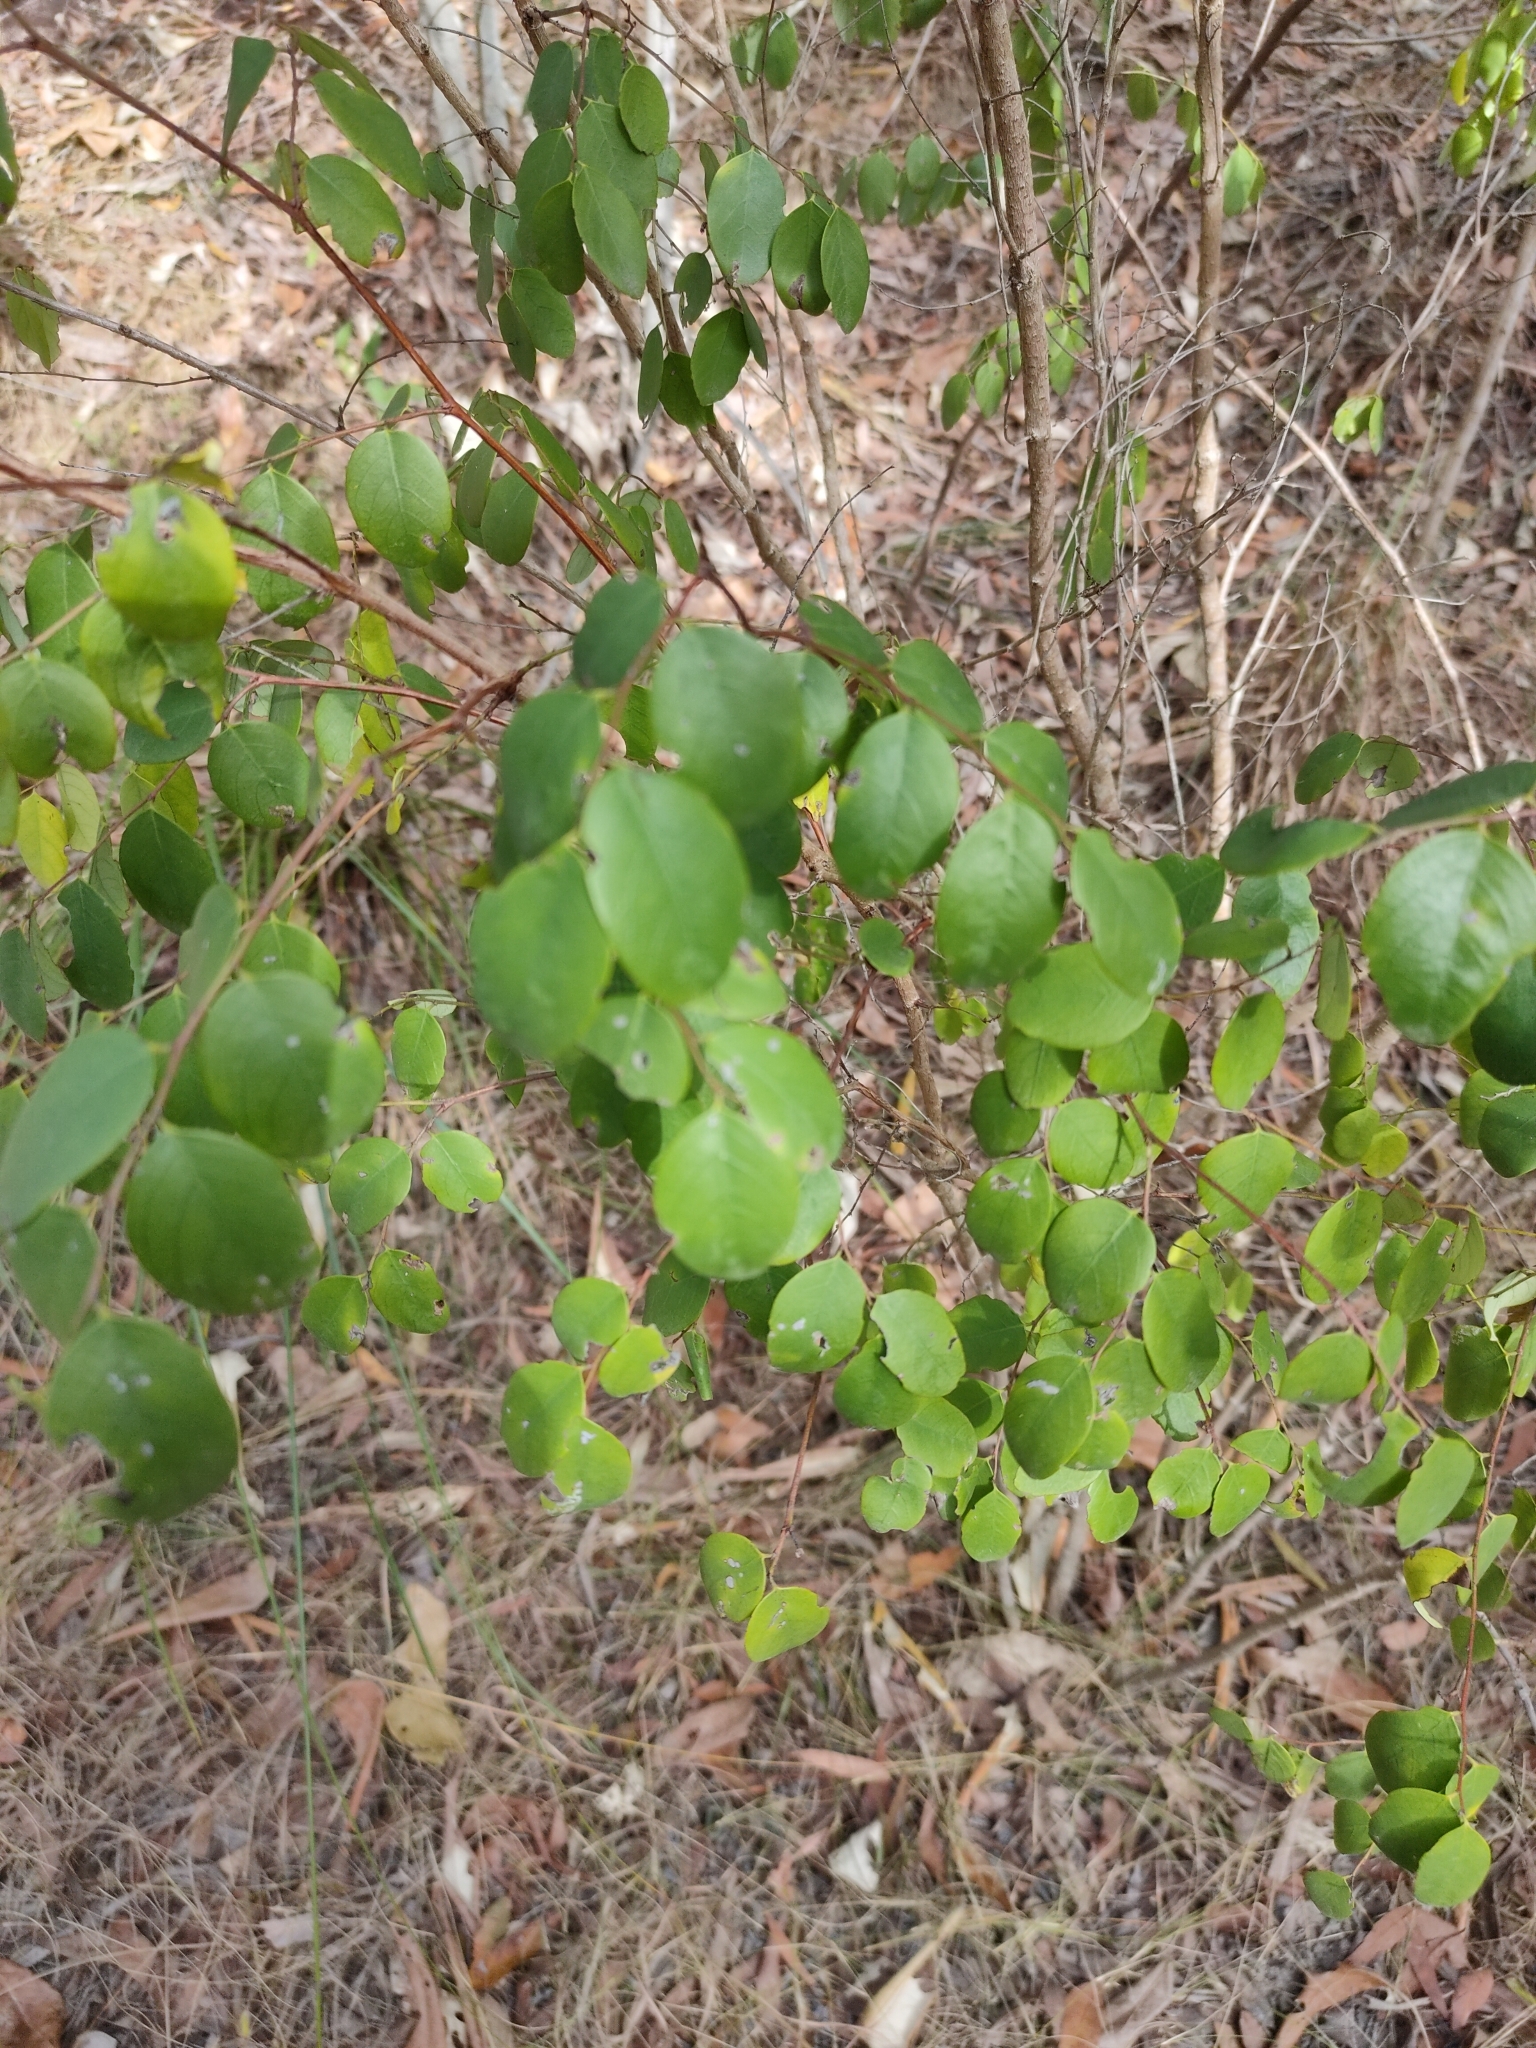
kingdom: Plantae
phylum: Tracheophyta
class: Magnoliopsida
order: Malpighiales
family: Phyllanthaceae
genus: Breynia
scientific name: Breynia oblongifolia
